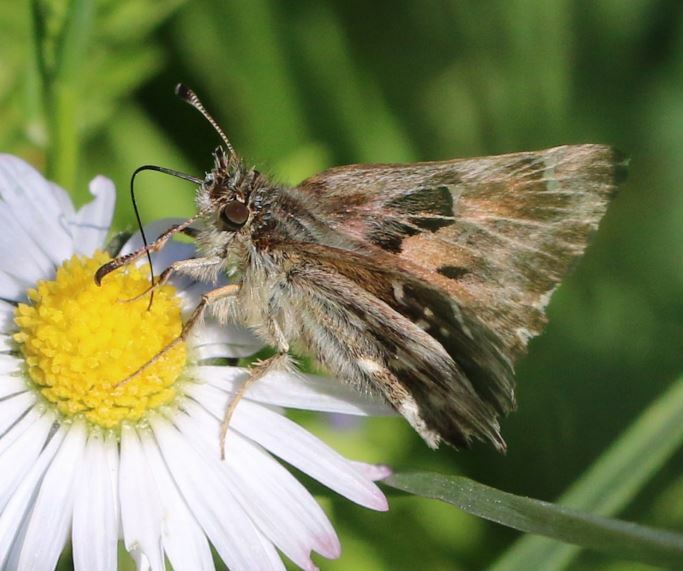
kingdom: Animalia
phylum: Arthropoda
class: Insecta
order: Lepidoptera
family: Hesperiidae
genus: Carcharodus
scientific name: Carcharodus alceae
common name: Mallow skipper
